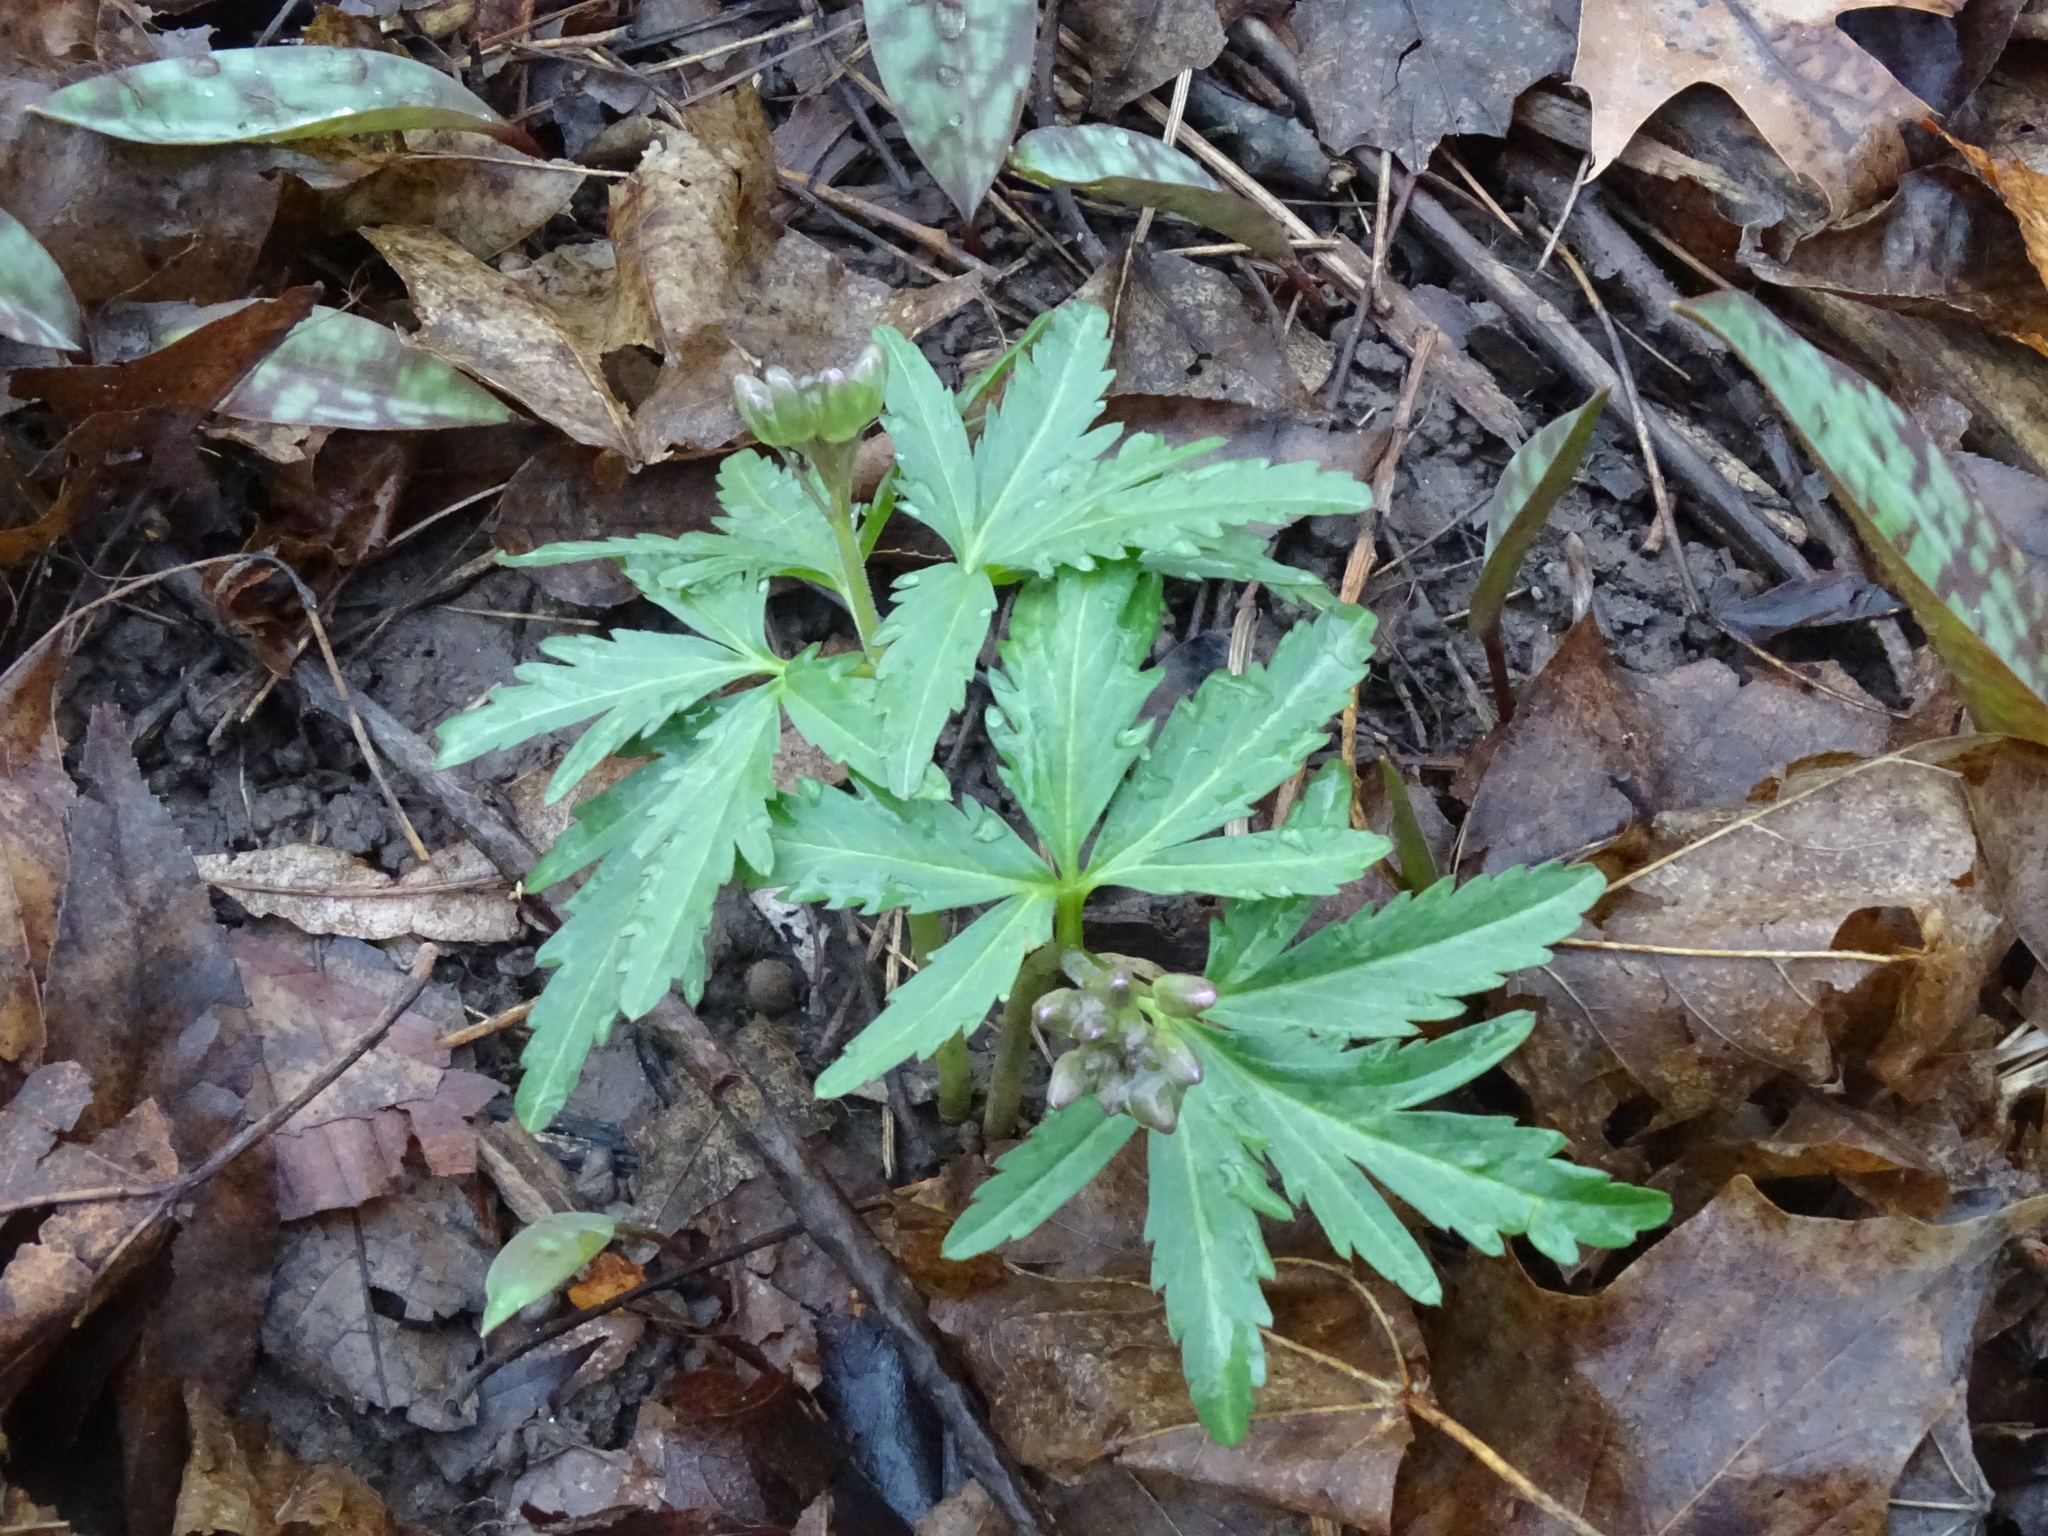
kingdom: Plantae
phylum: Tracheophyta
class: Magnoliopsida
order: Brassicales
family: Brassicaceae
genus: Cardamine
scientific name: Cardamine concatenata
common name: Cut-leaf toothcup
